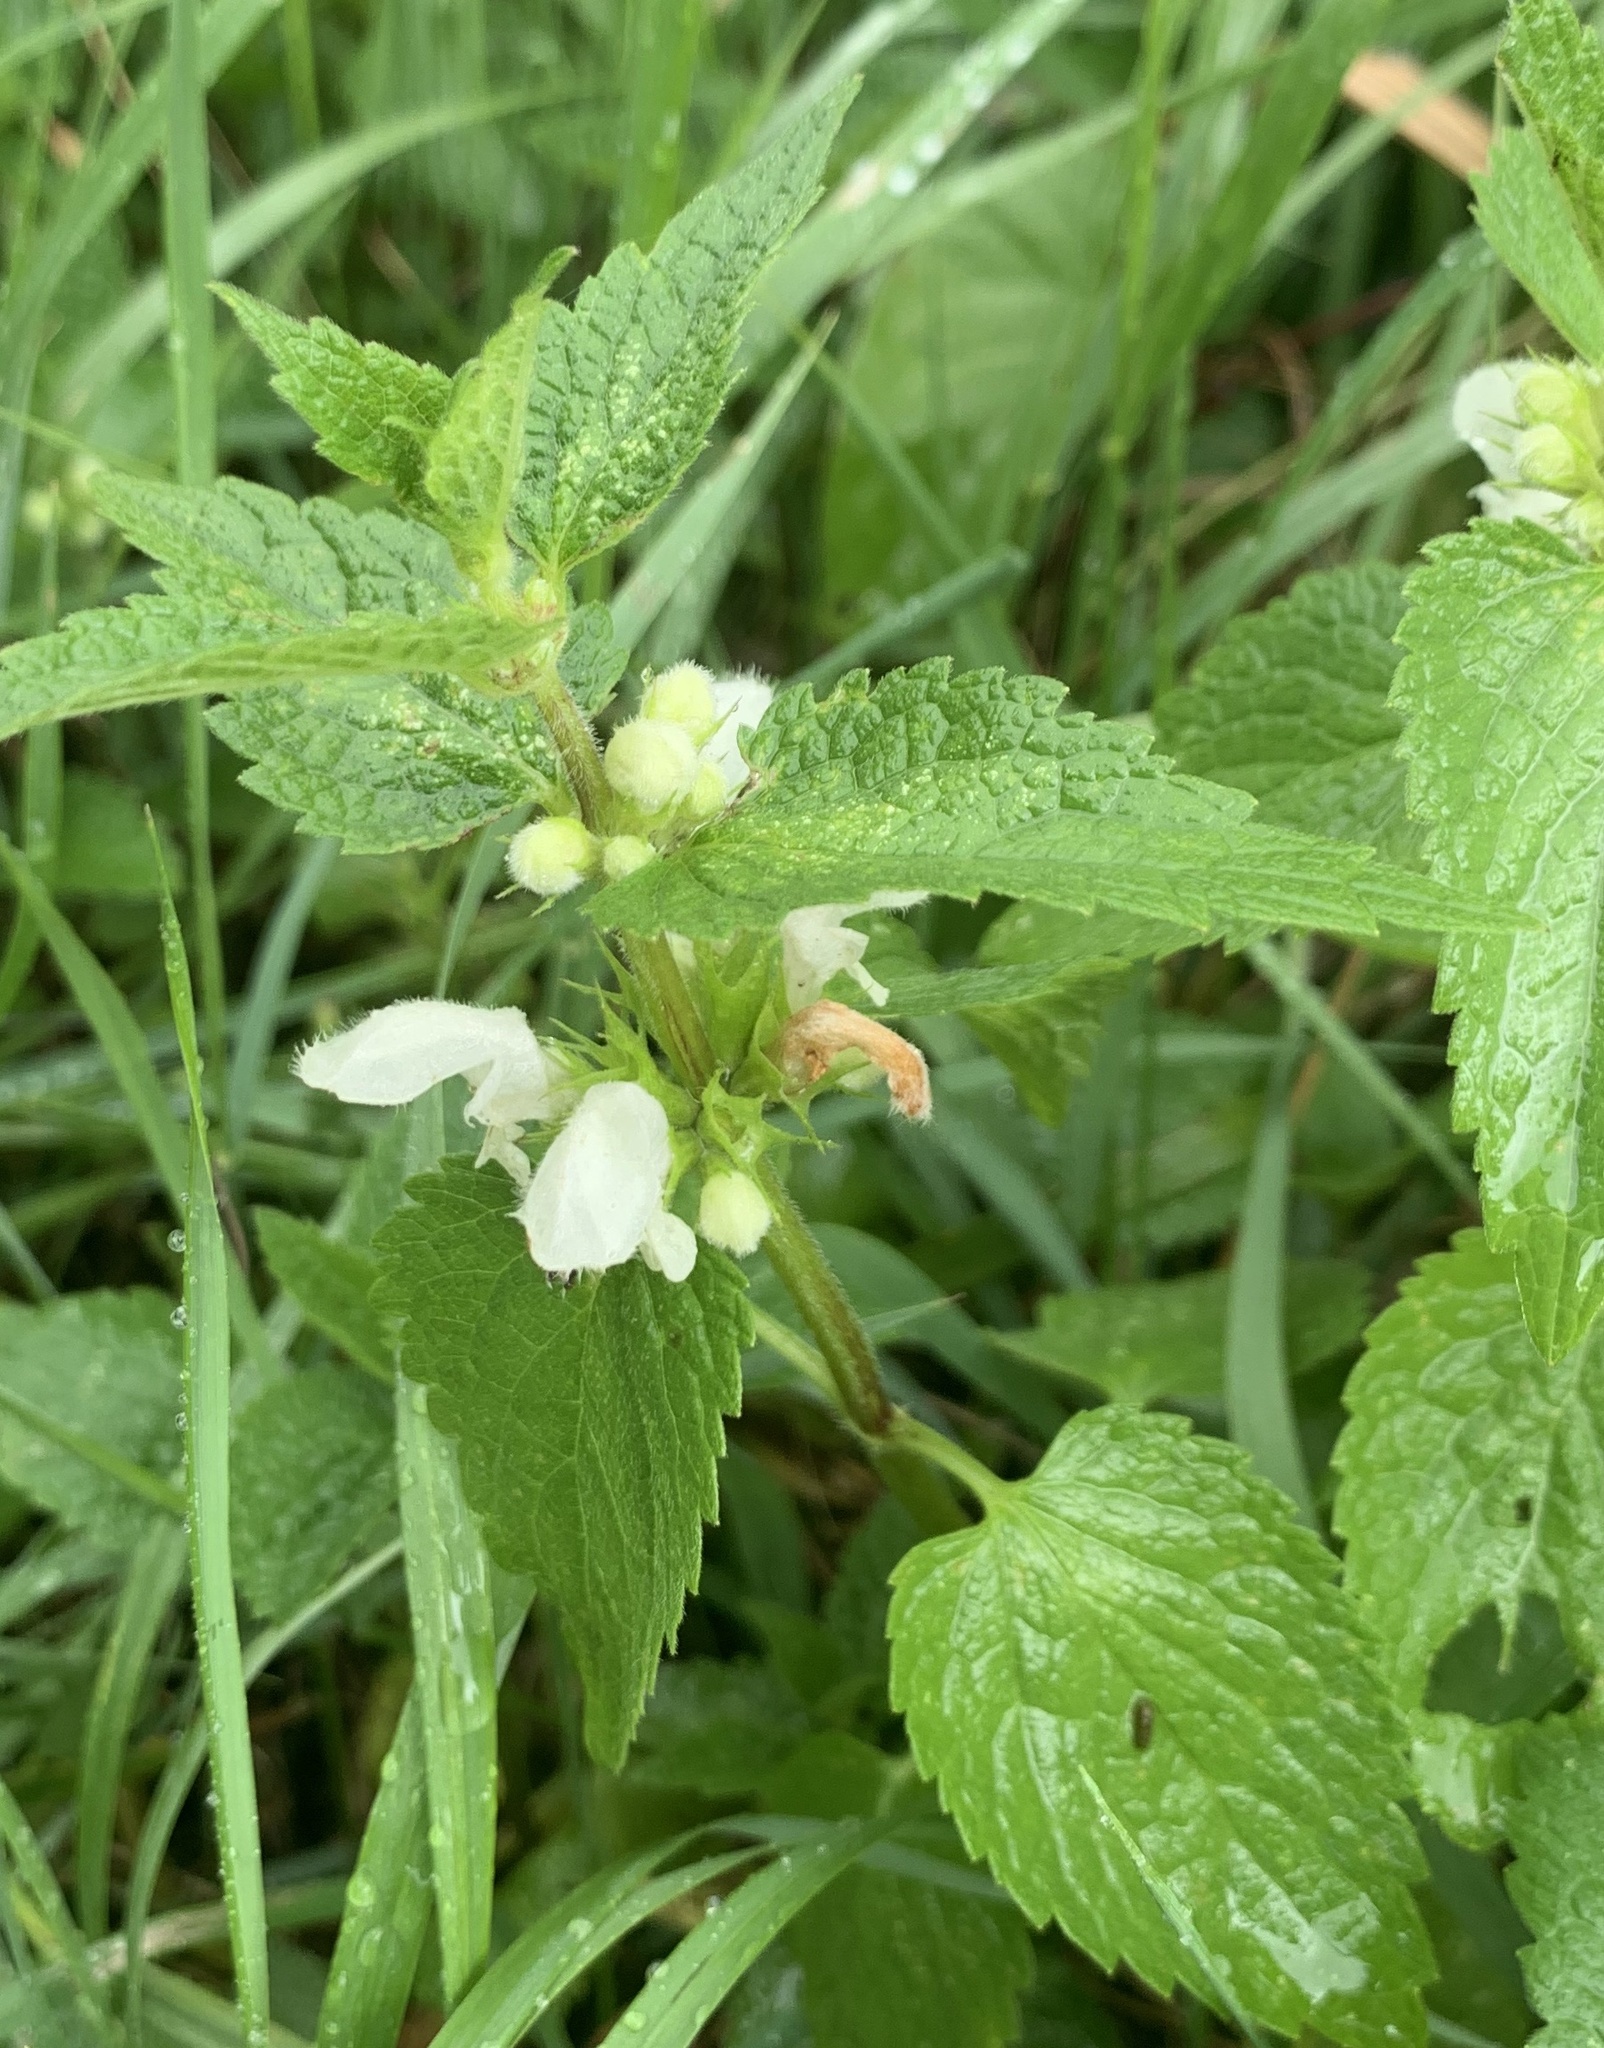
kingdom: Plantae
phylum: Tracheophyta
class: Magnoliopsida
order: Lamiales
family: Lamiaceae
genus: Lamium
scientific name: Lamium album
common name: White dead-nettle
